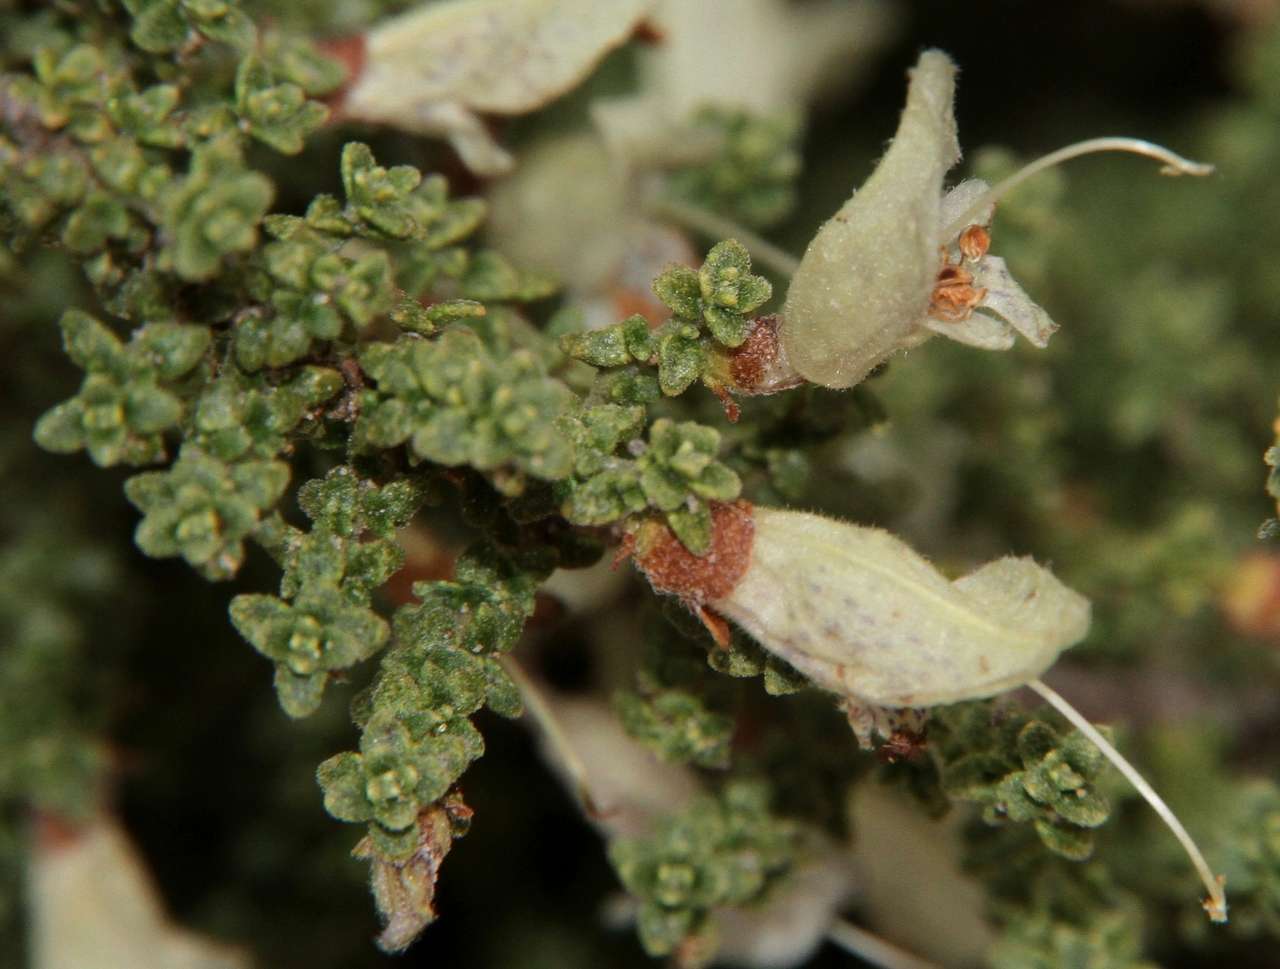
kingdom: Plantae
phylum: Tracheophyta
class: Magnoliopsida
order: Lamiales
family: Lamiaceae
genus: Prostanthera
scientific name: Prostanthera microphylla
